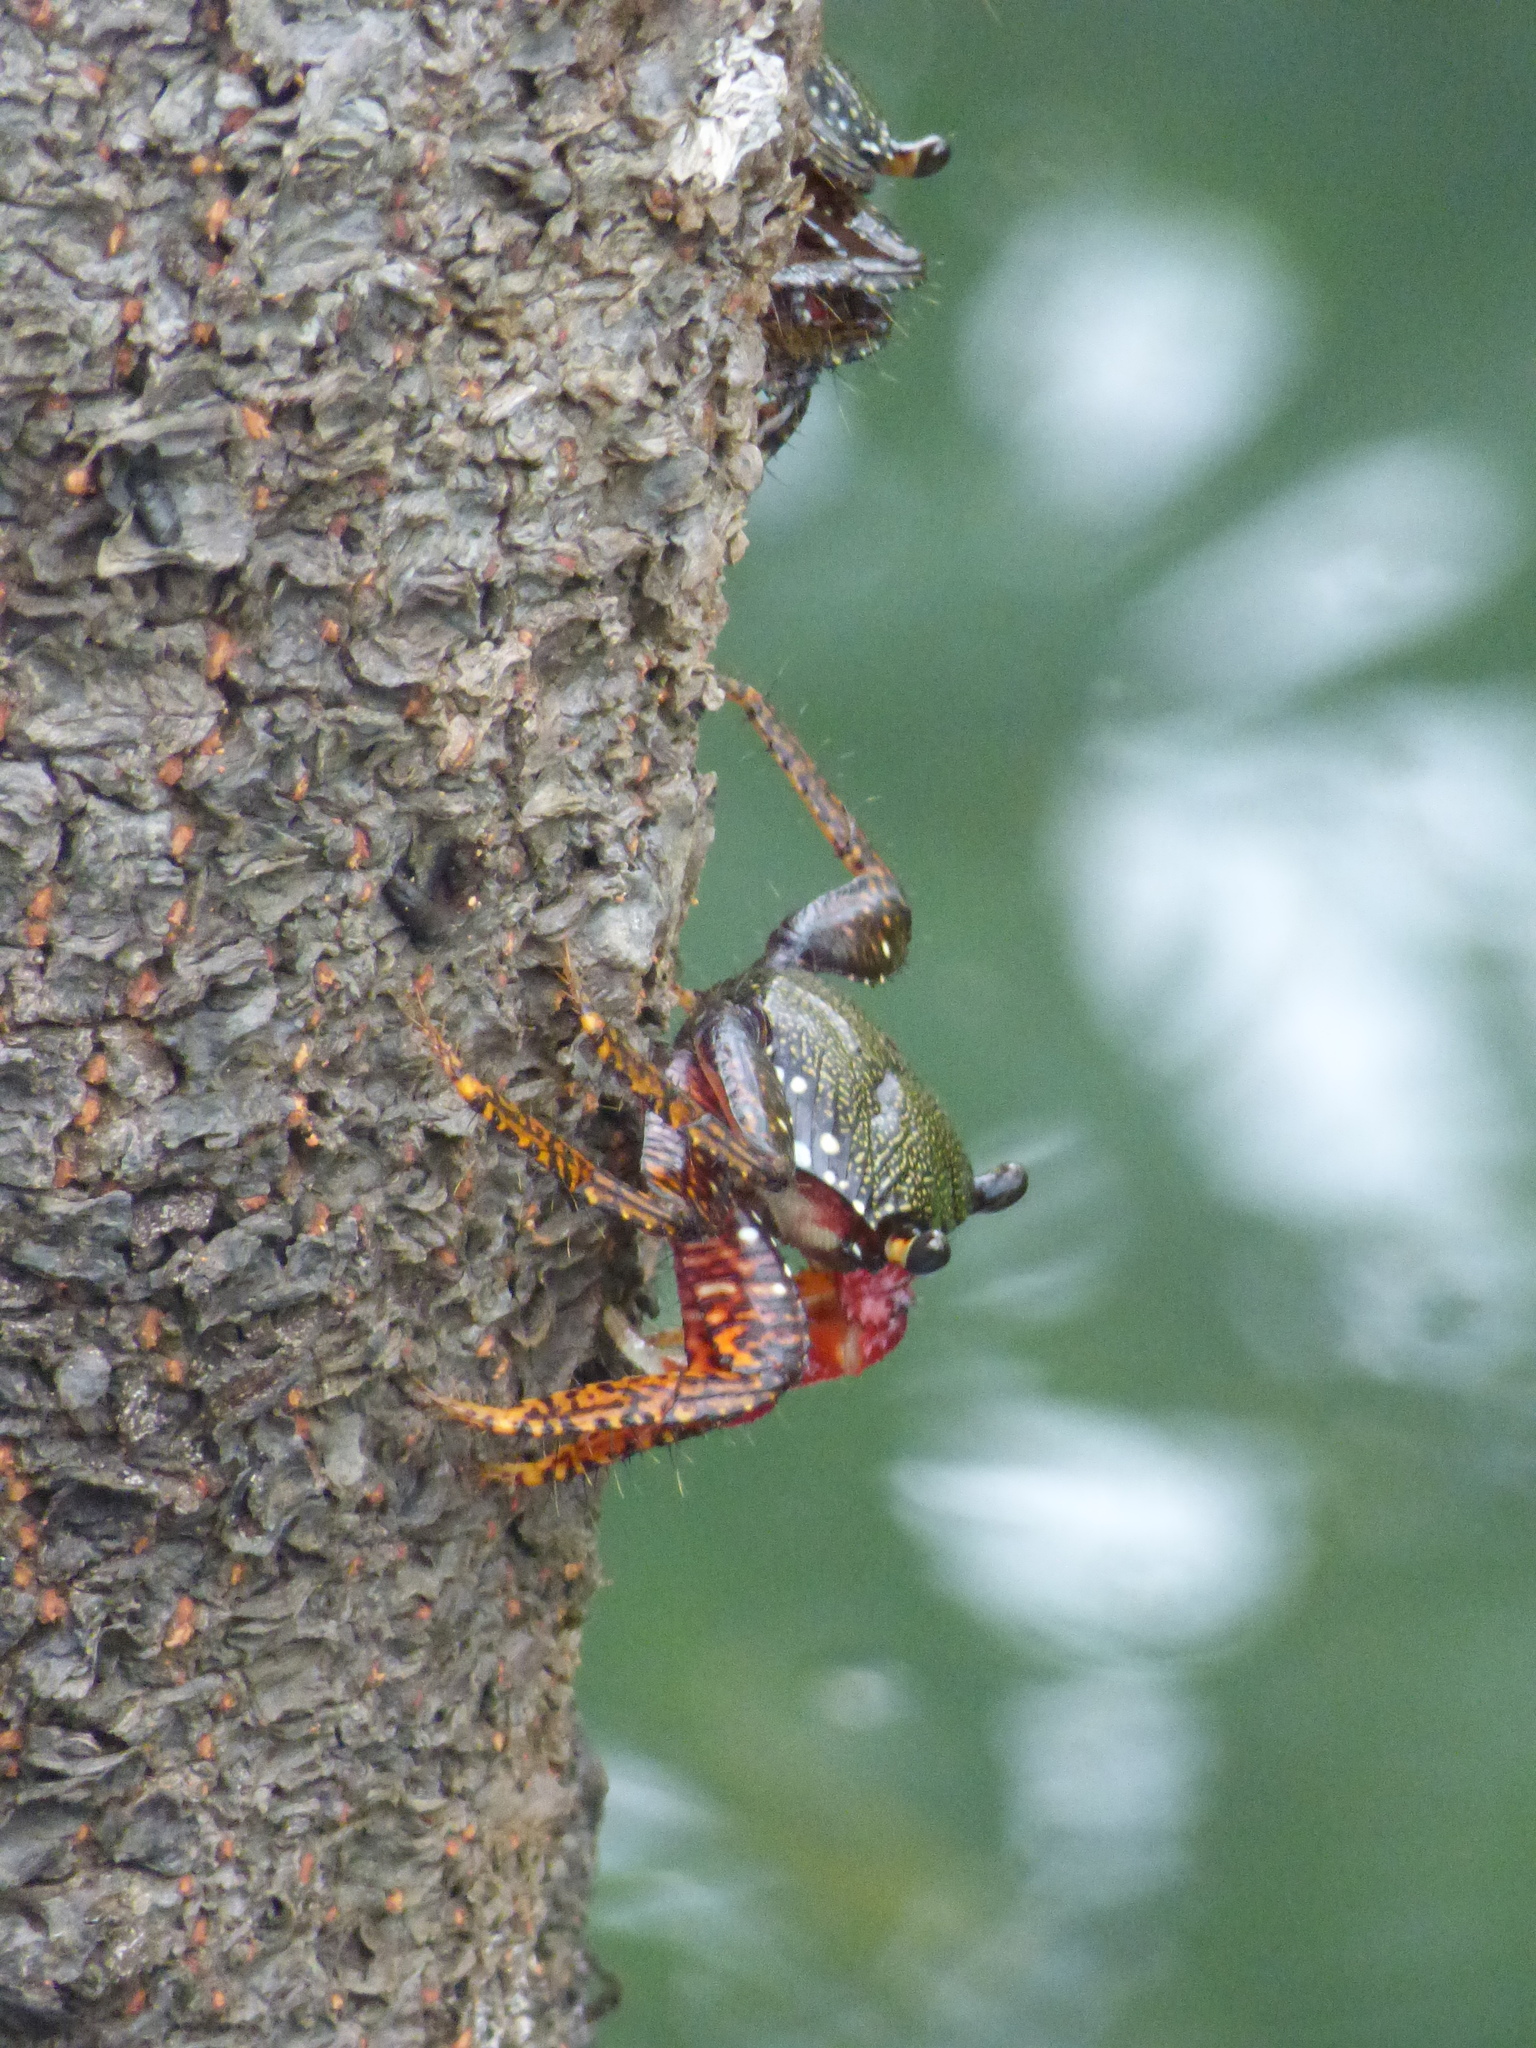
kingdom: Animalia
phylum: Arthropoda
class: Malacostraca
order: Decapoda
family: Grapsidae
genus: Goniopsis
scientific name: Goniopsis pulchra
